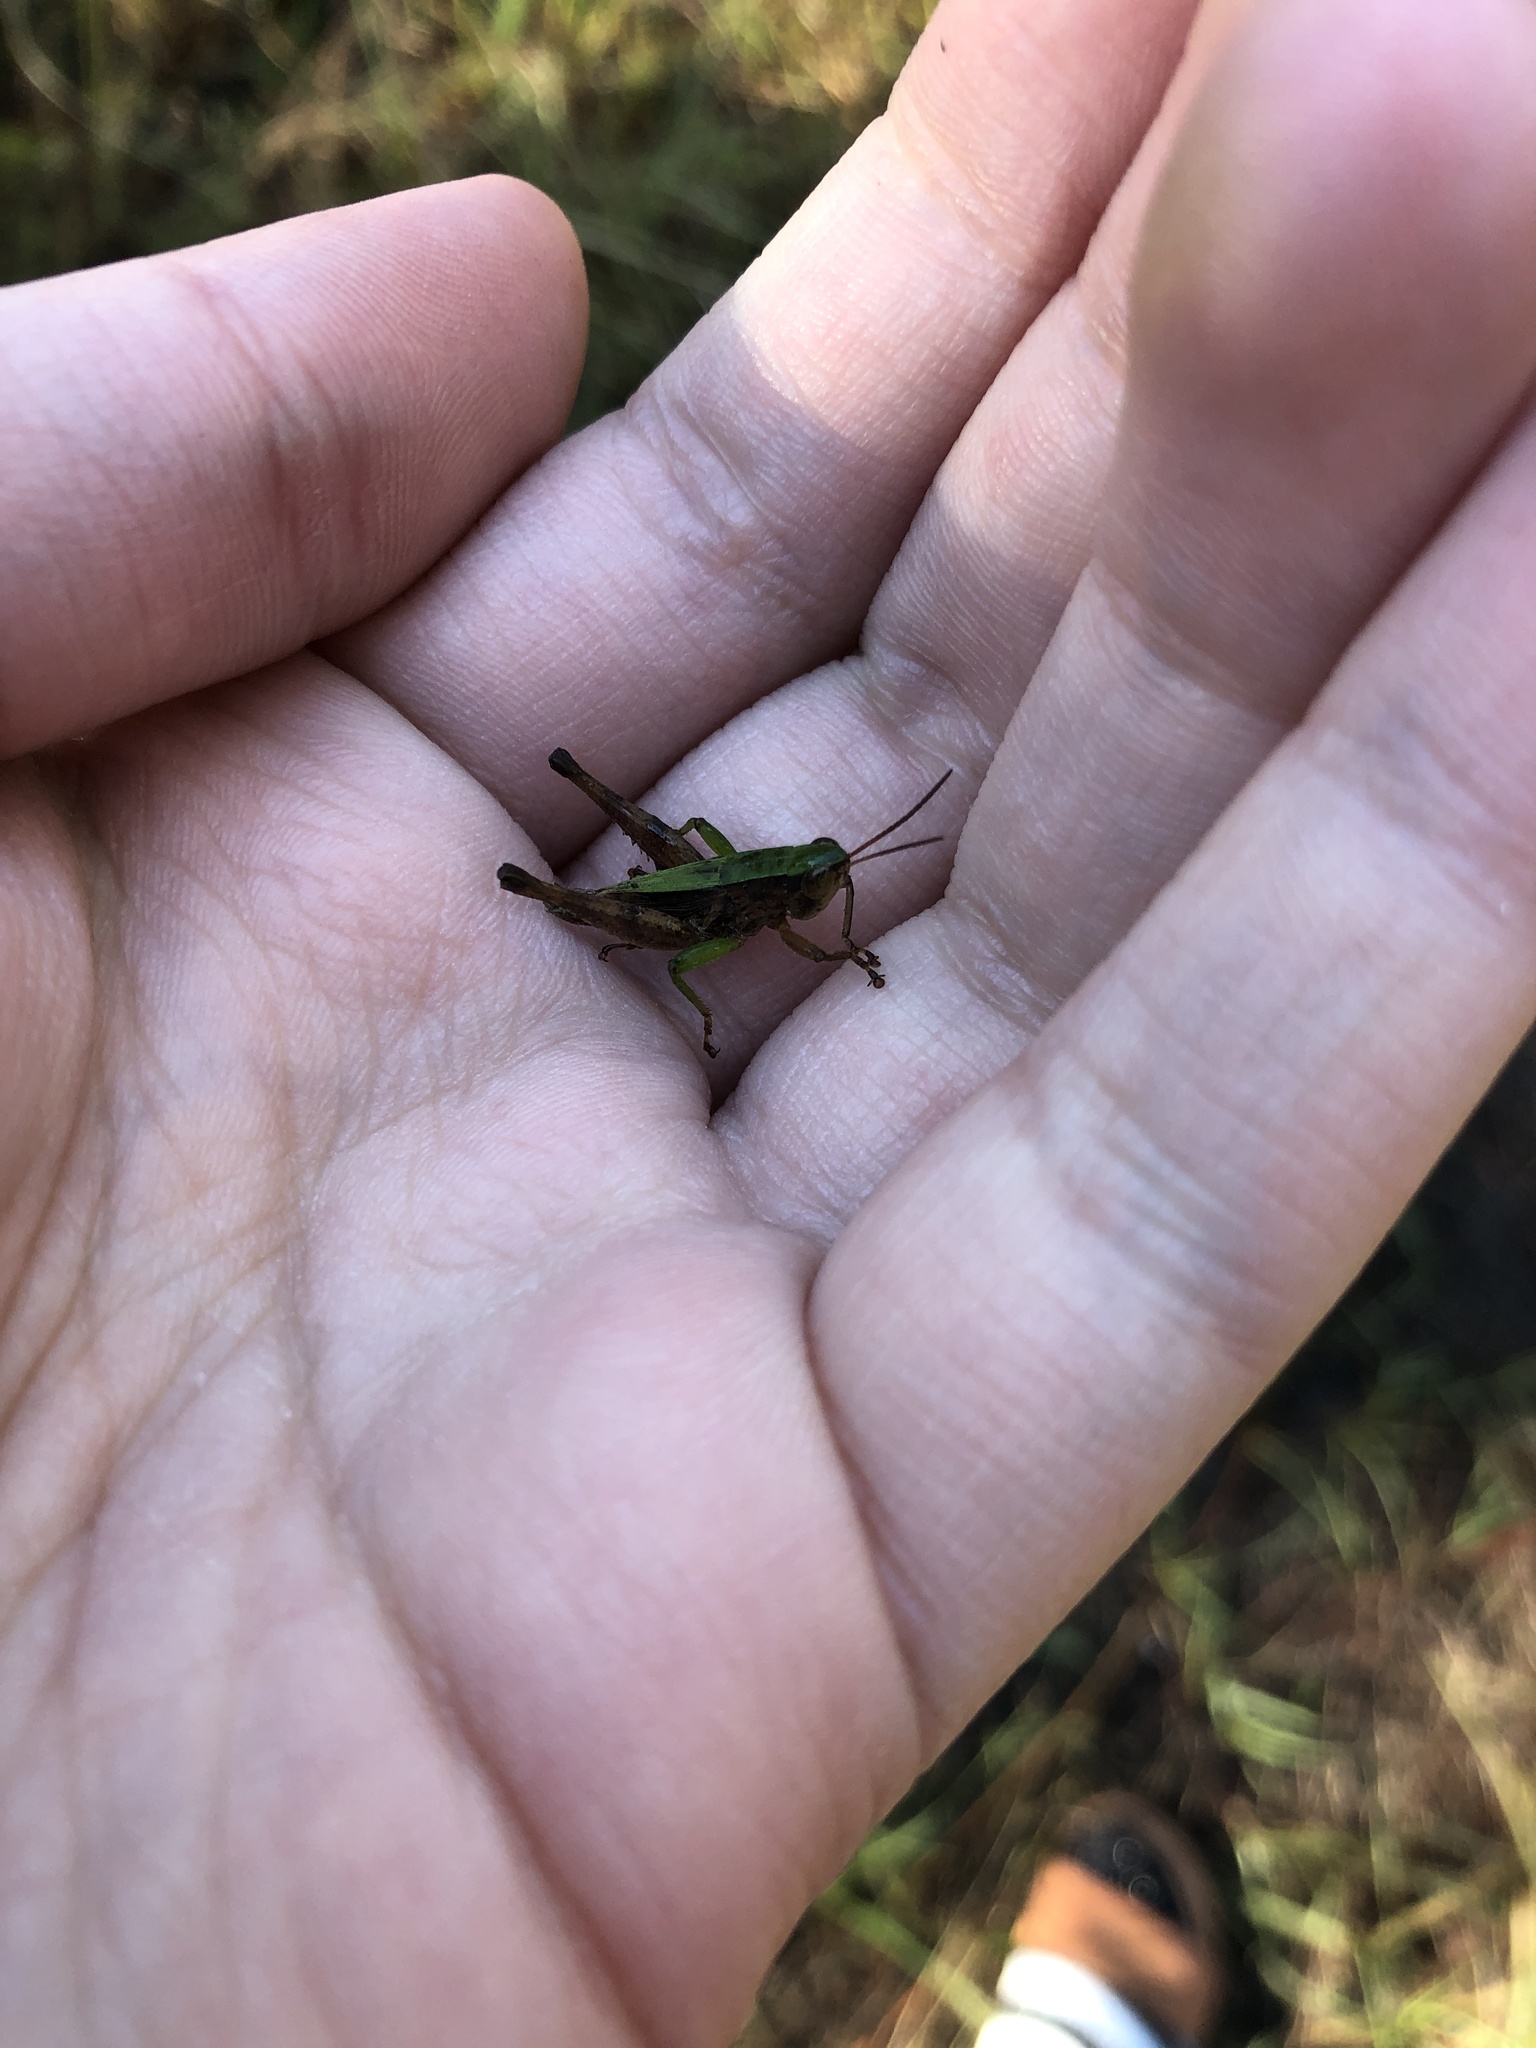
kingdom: Animalia
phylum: Arthropoda
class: Insecta
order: Orthoptera
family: Acrididae
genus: Dichromorpha
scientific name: Dichromorpha viridis
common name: Short-winged green grasshopper
